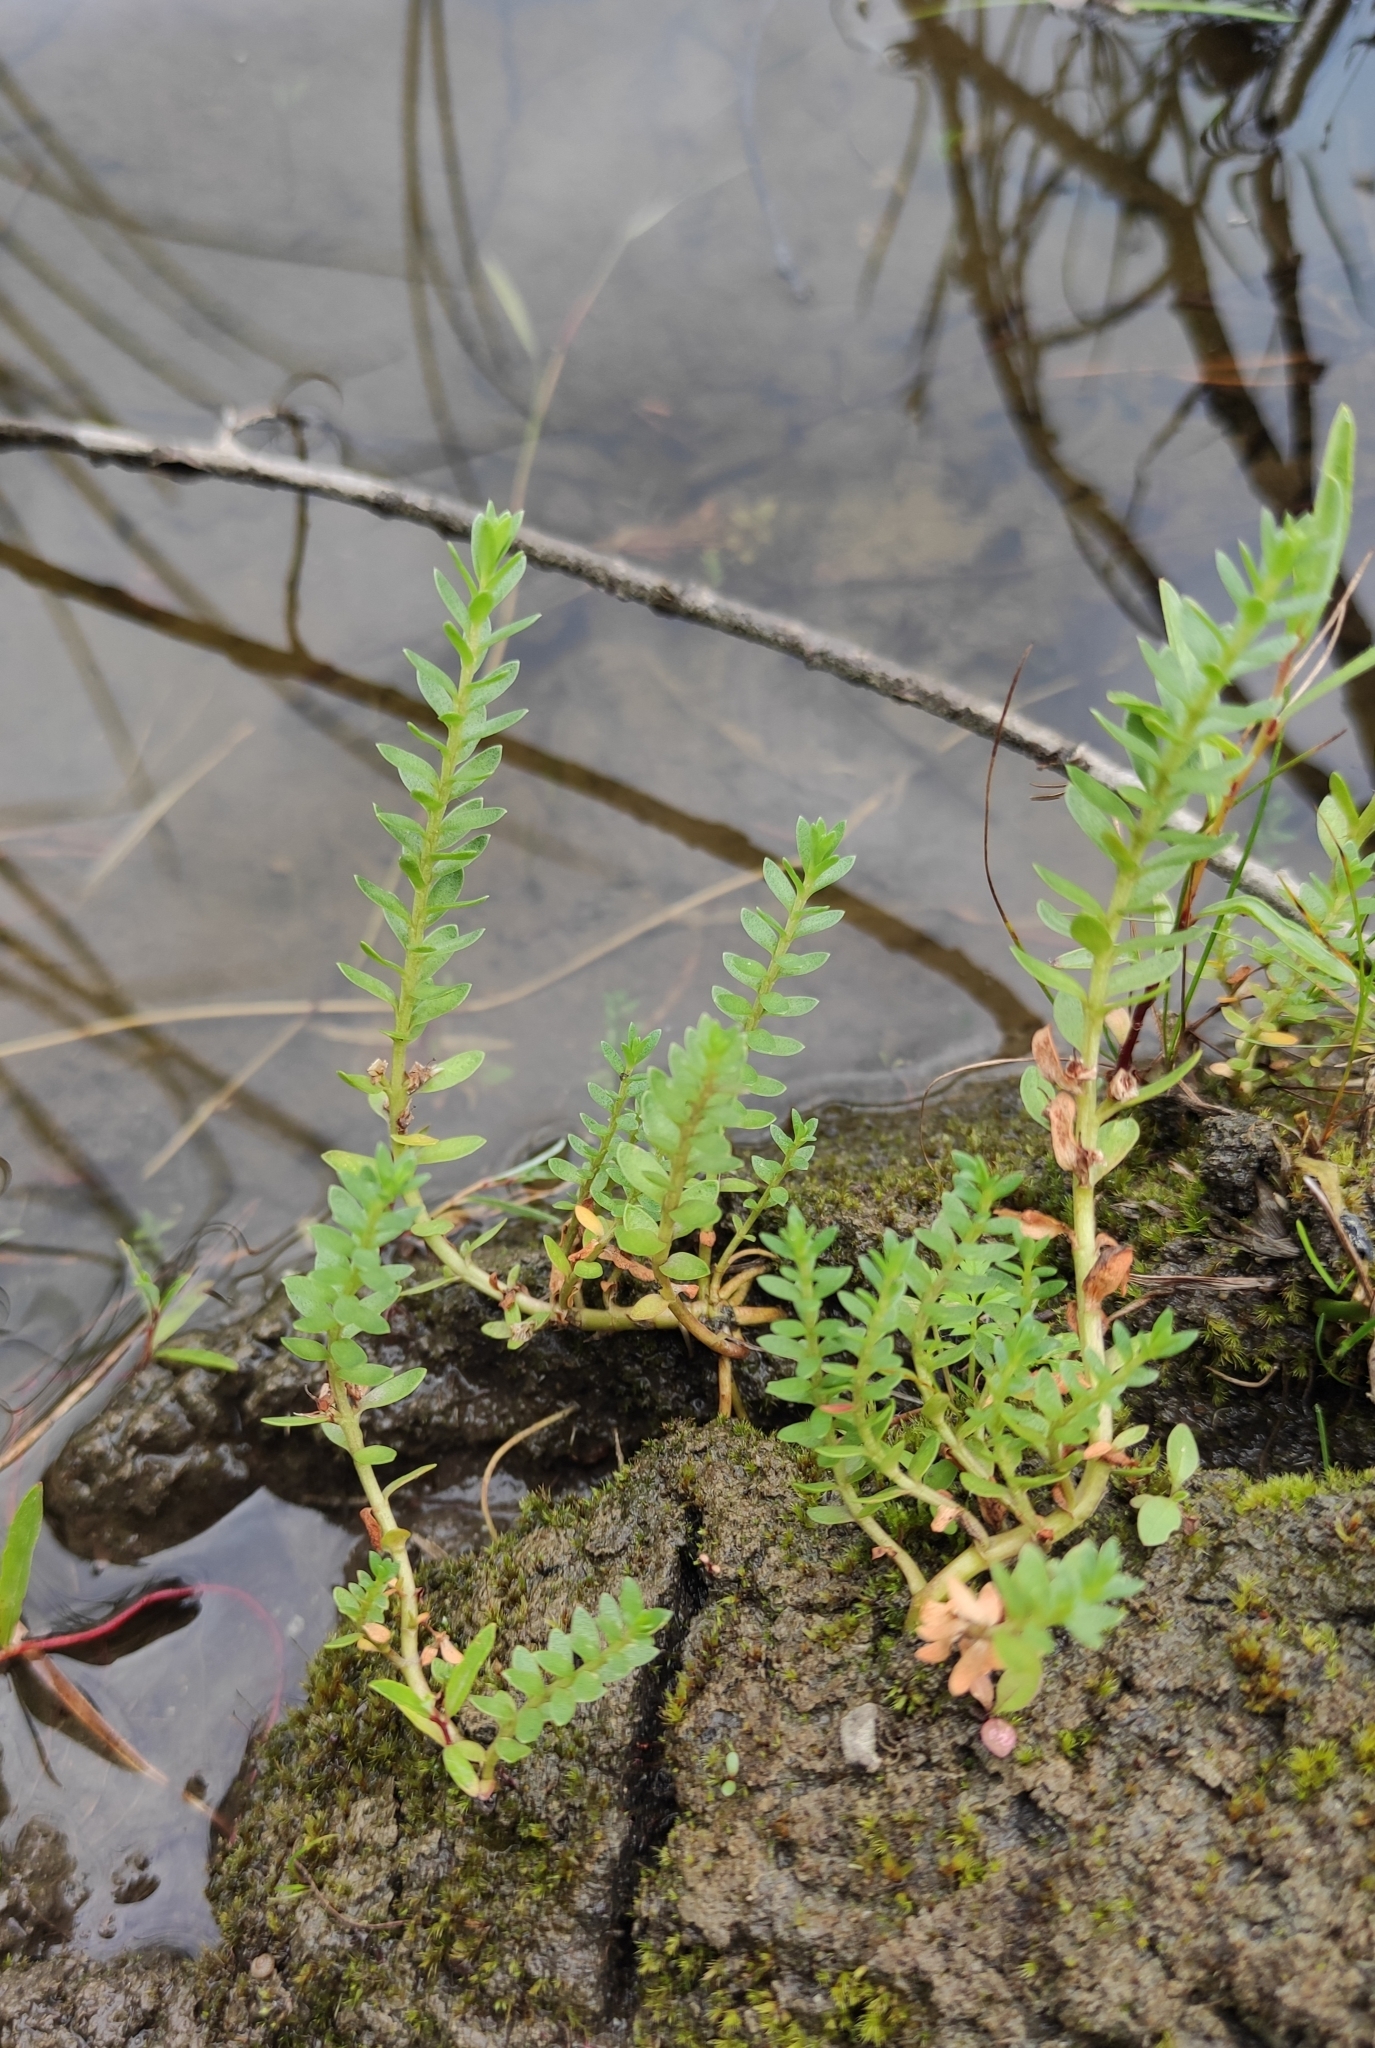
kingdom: Plantae
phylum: Tracheophyta
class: Magnoliopsida
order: Ericales
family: Primulaceae
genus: Lysimachia
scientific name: Lysimachia maritima
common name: Sea milkwort
